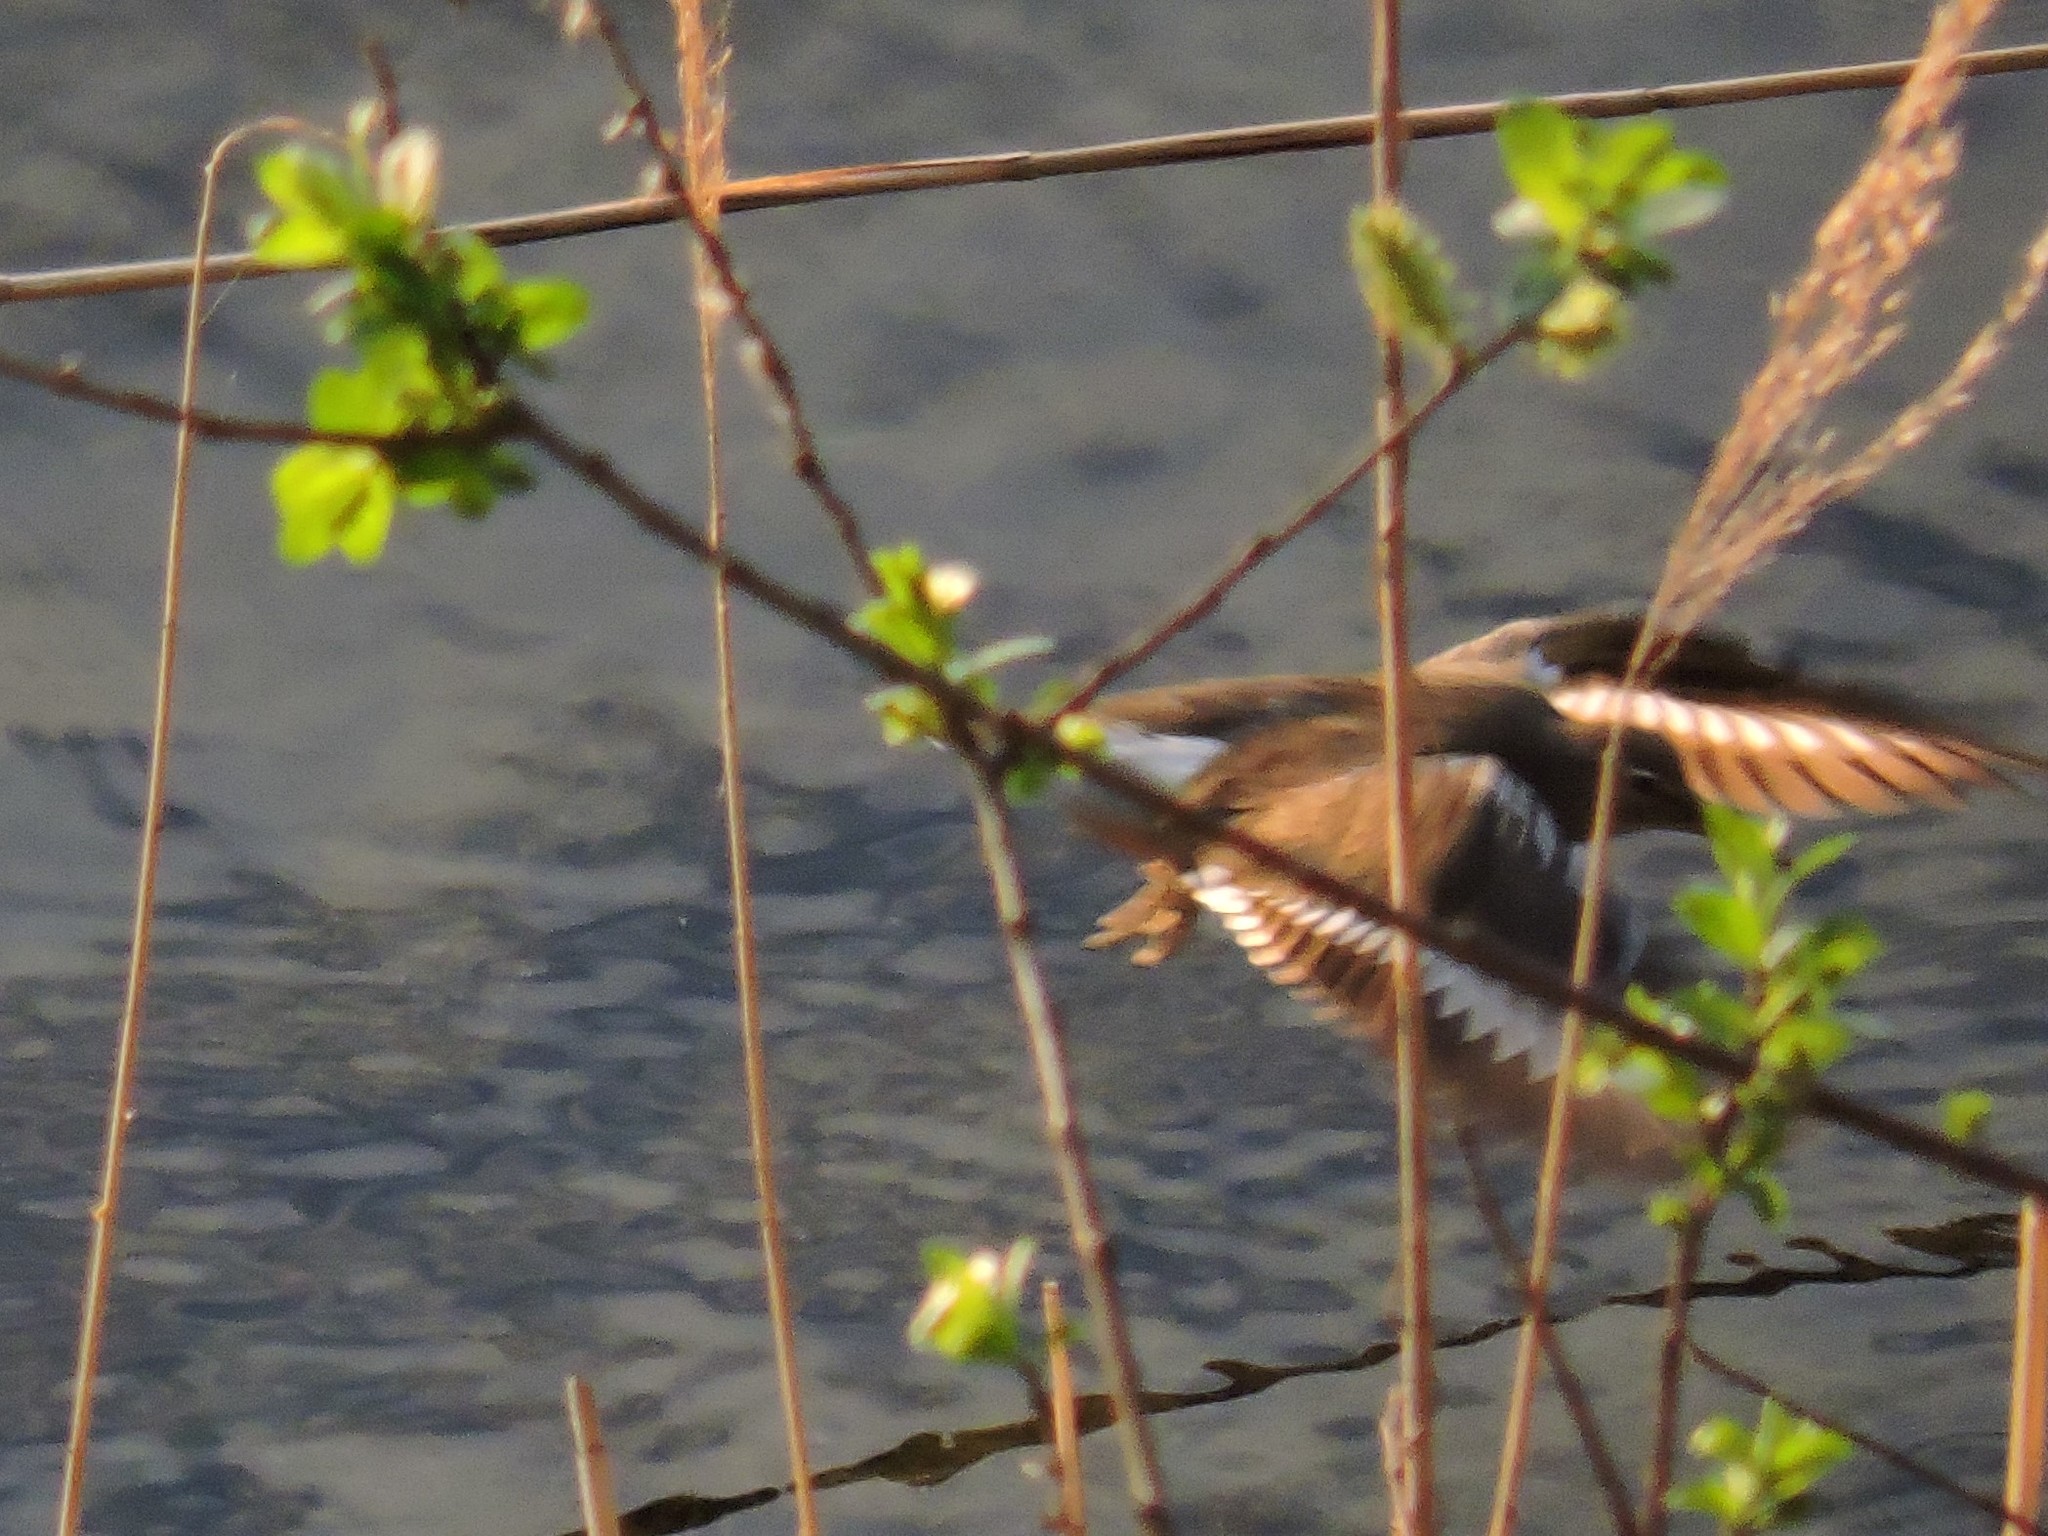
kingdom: Animalia
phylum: Chordata
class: Aves
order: Charadriiformes
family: Scolopacidae
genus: Actitis
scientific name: Actitis hypoleucos
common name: Common sandpiper
